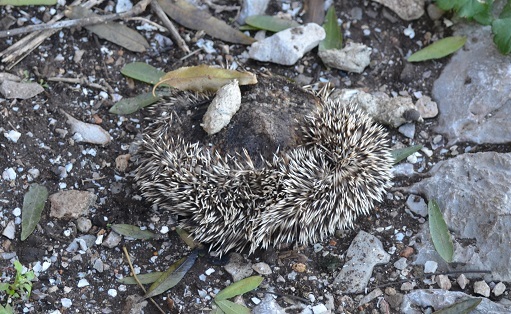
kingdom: Animalia
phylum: Chordata
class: Mammalia
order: Erinaceomorpha
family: Erinaceidae
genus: Atelerix
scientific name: Atelerix algirus
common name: North african hedgehog
